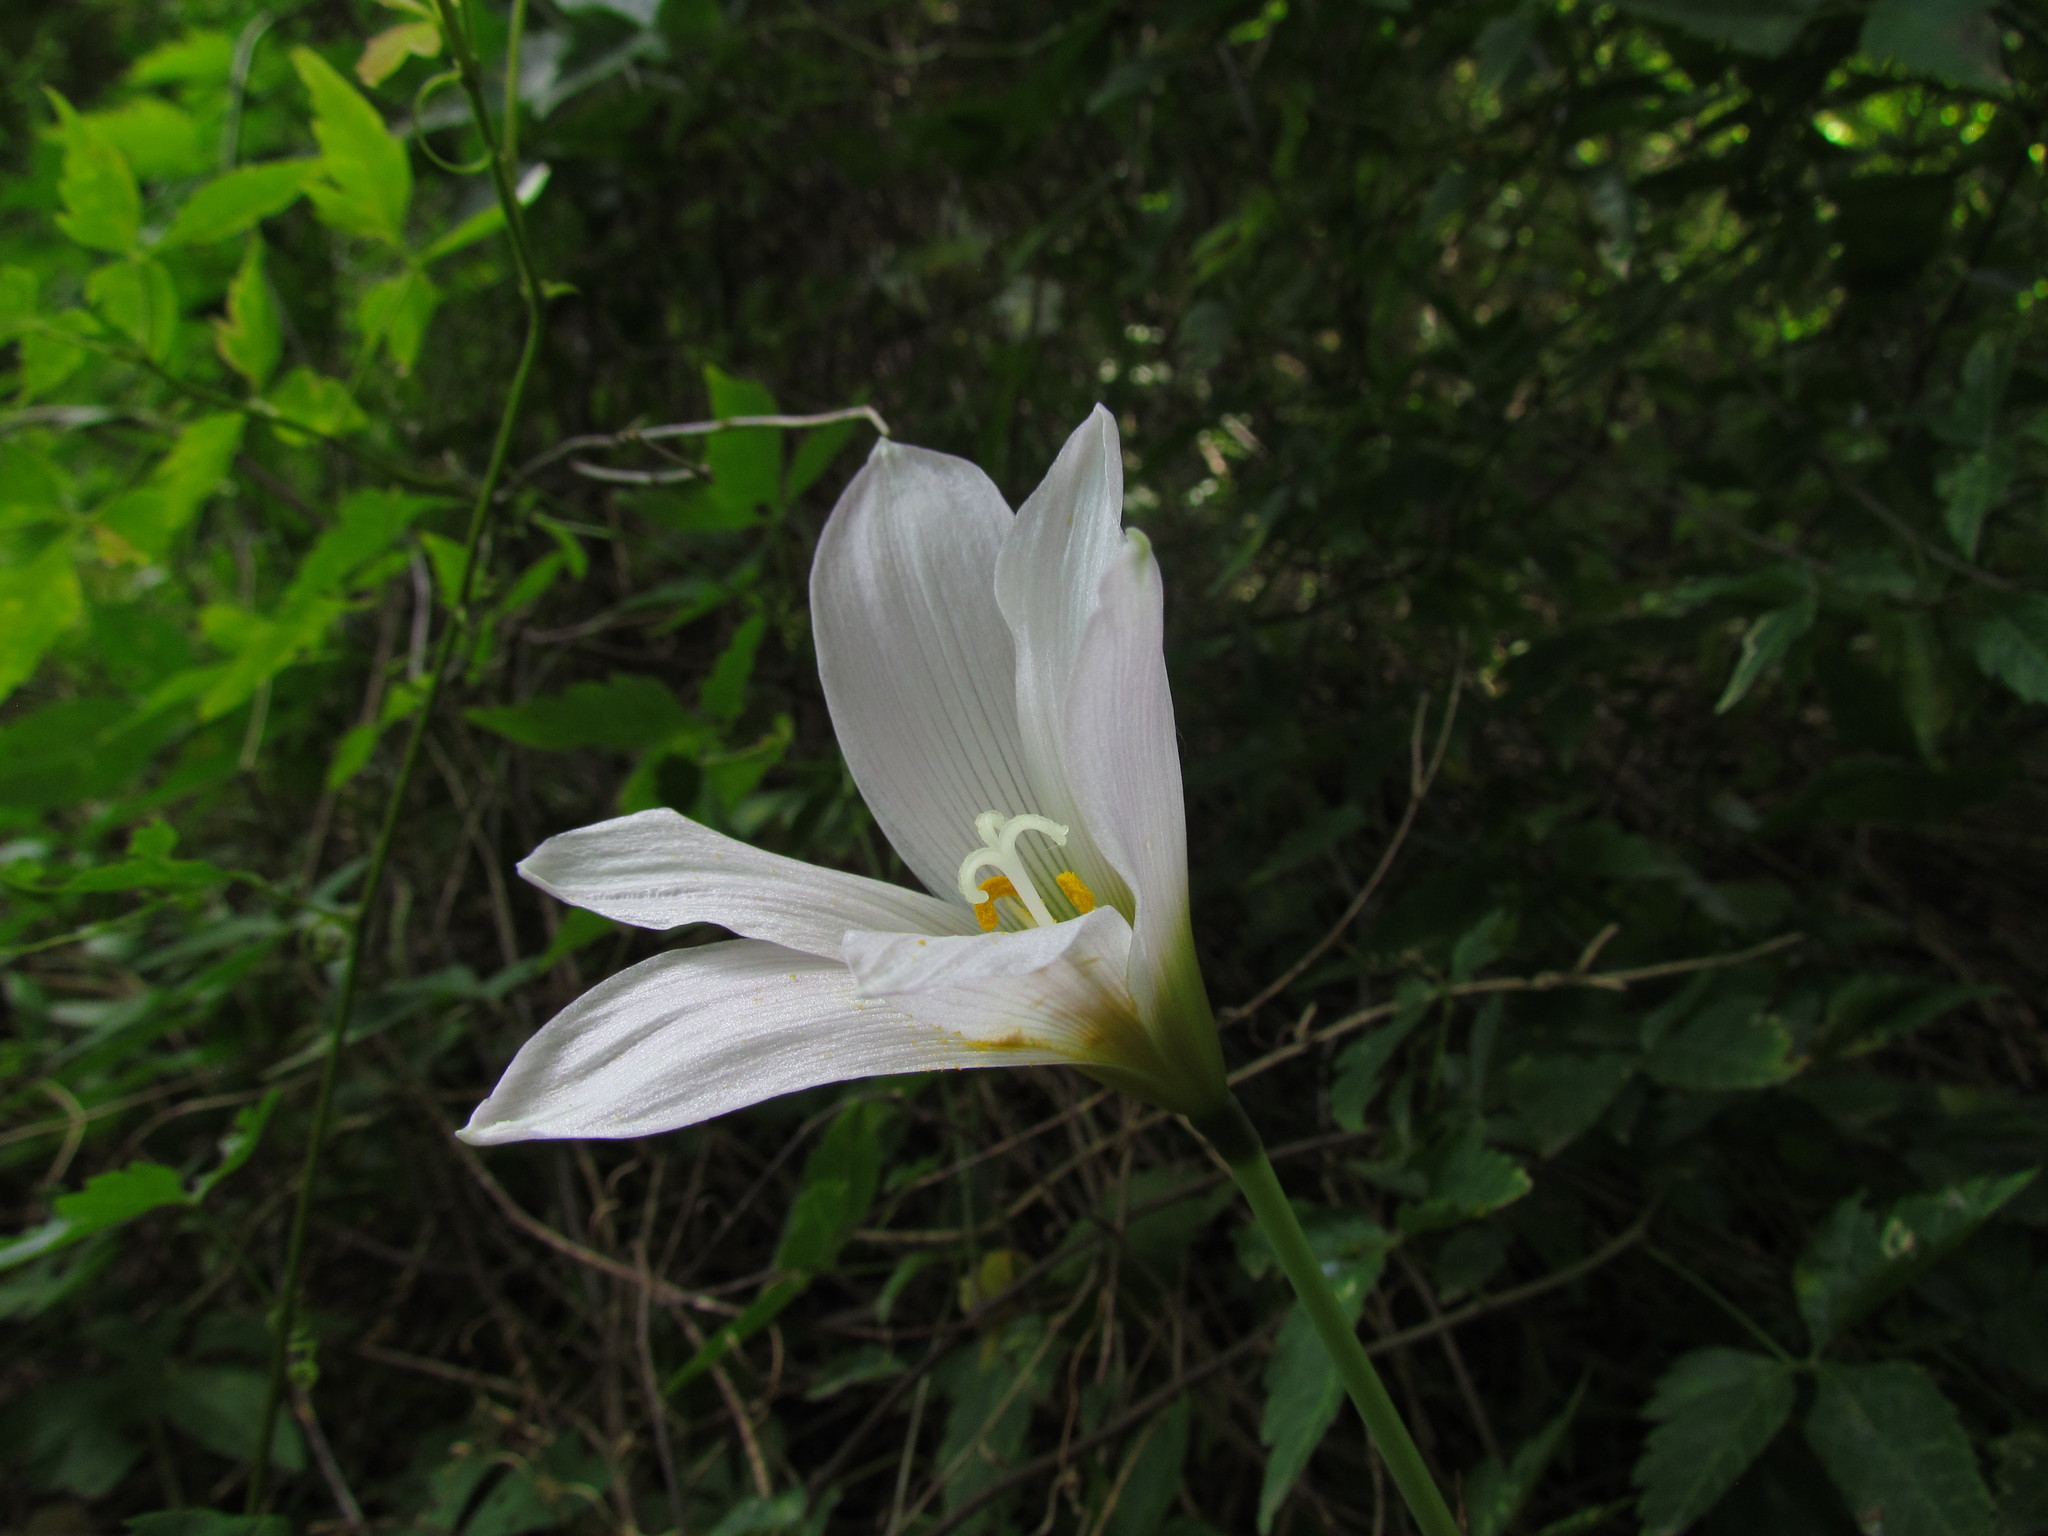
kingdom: Plantae
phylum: Tracheophyta
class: Liliopsida
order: Asparagales
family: Amaryllidaceae
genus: Zephyranthes
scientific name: Zephyranthes mesochloa
